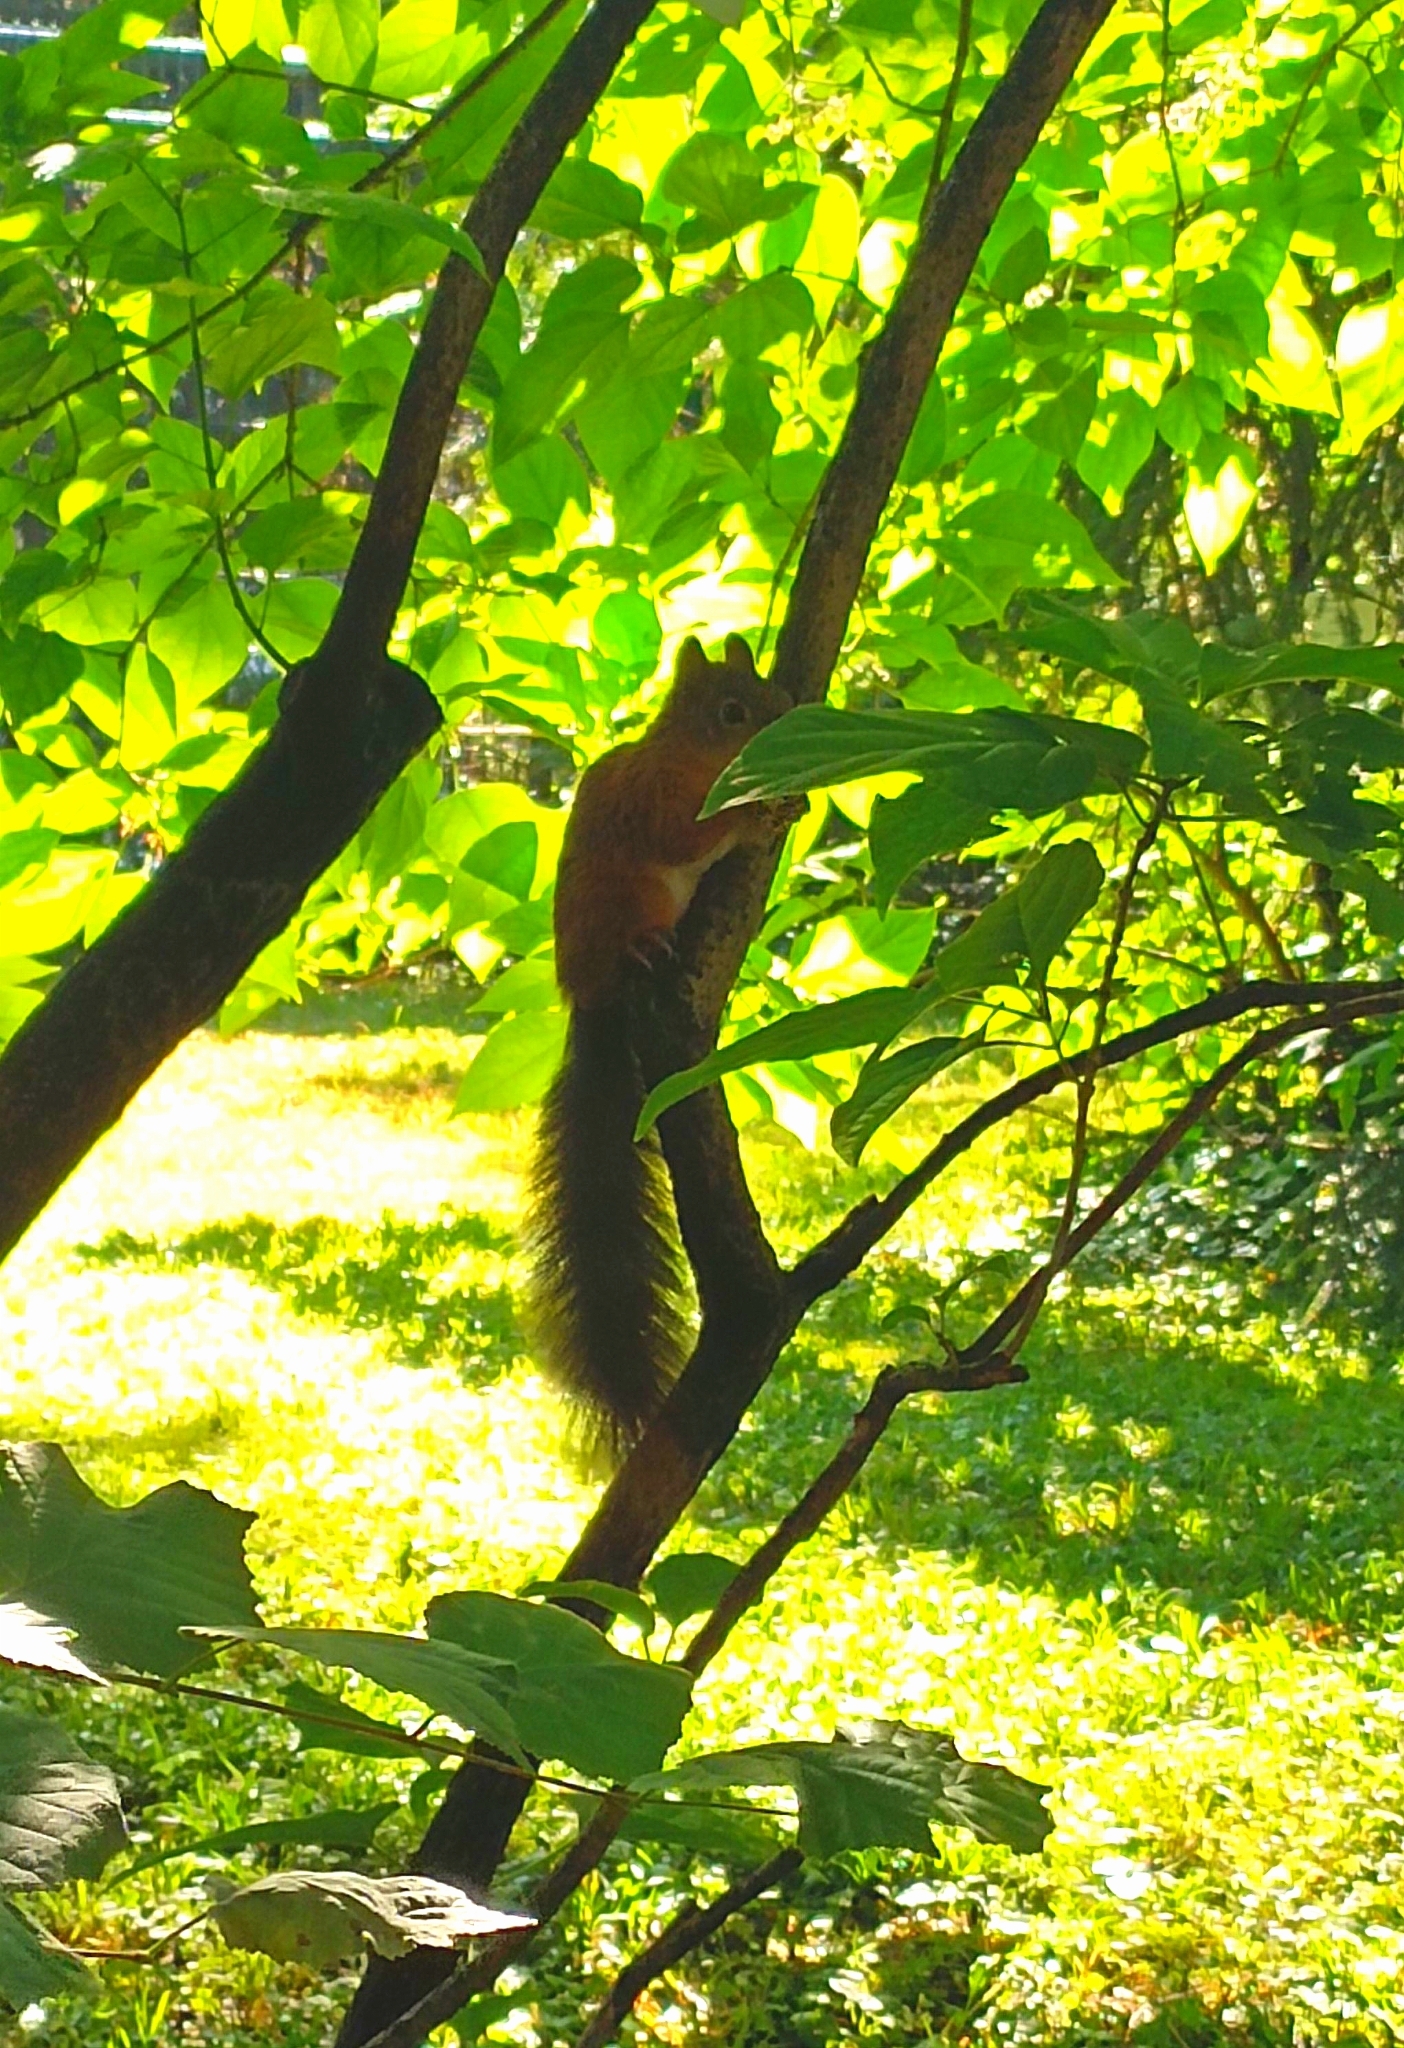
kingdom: Animalia
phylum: Chordata
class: Mammalia
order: Rodentia
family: Sciuridae
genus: Sciurus
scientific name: Sciurus vulgaris
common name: Eurasian red squirrel
